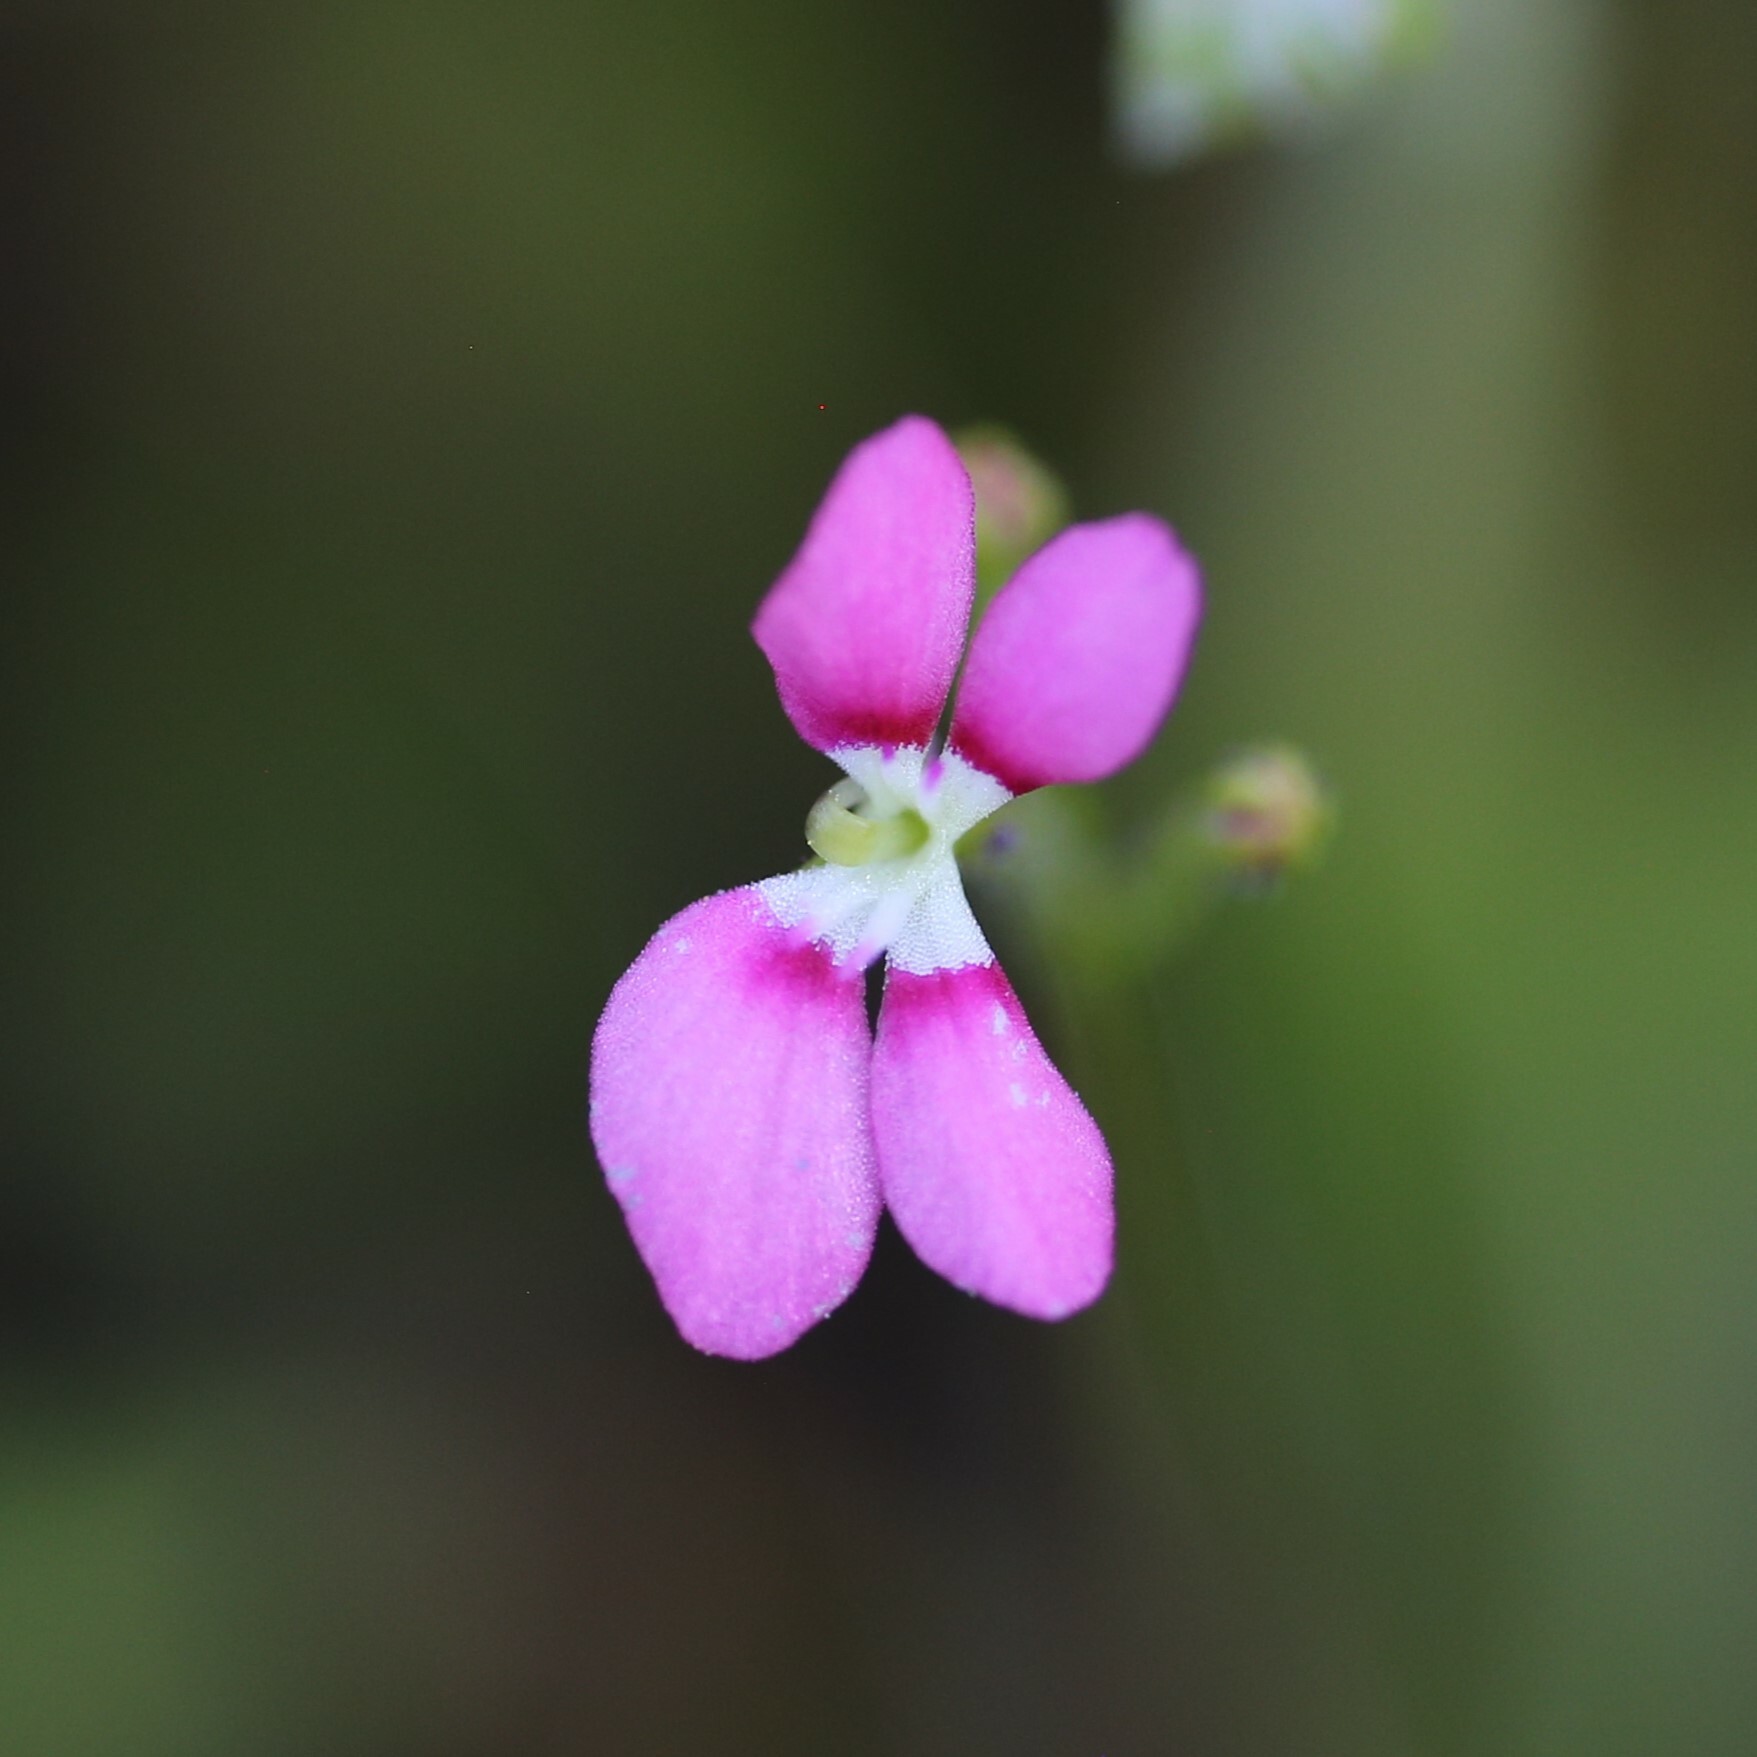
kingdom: Plantae
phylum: Tracheophyta
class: Magnoliopsida
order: Asterales
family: Stylidiaceae
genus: Stylidium
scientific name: Stylidium roseoalatum
